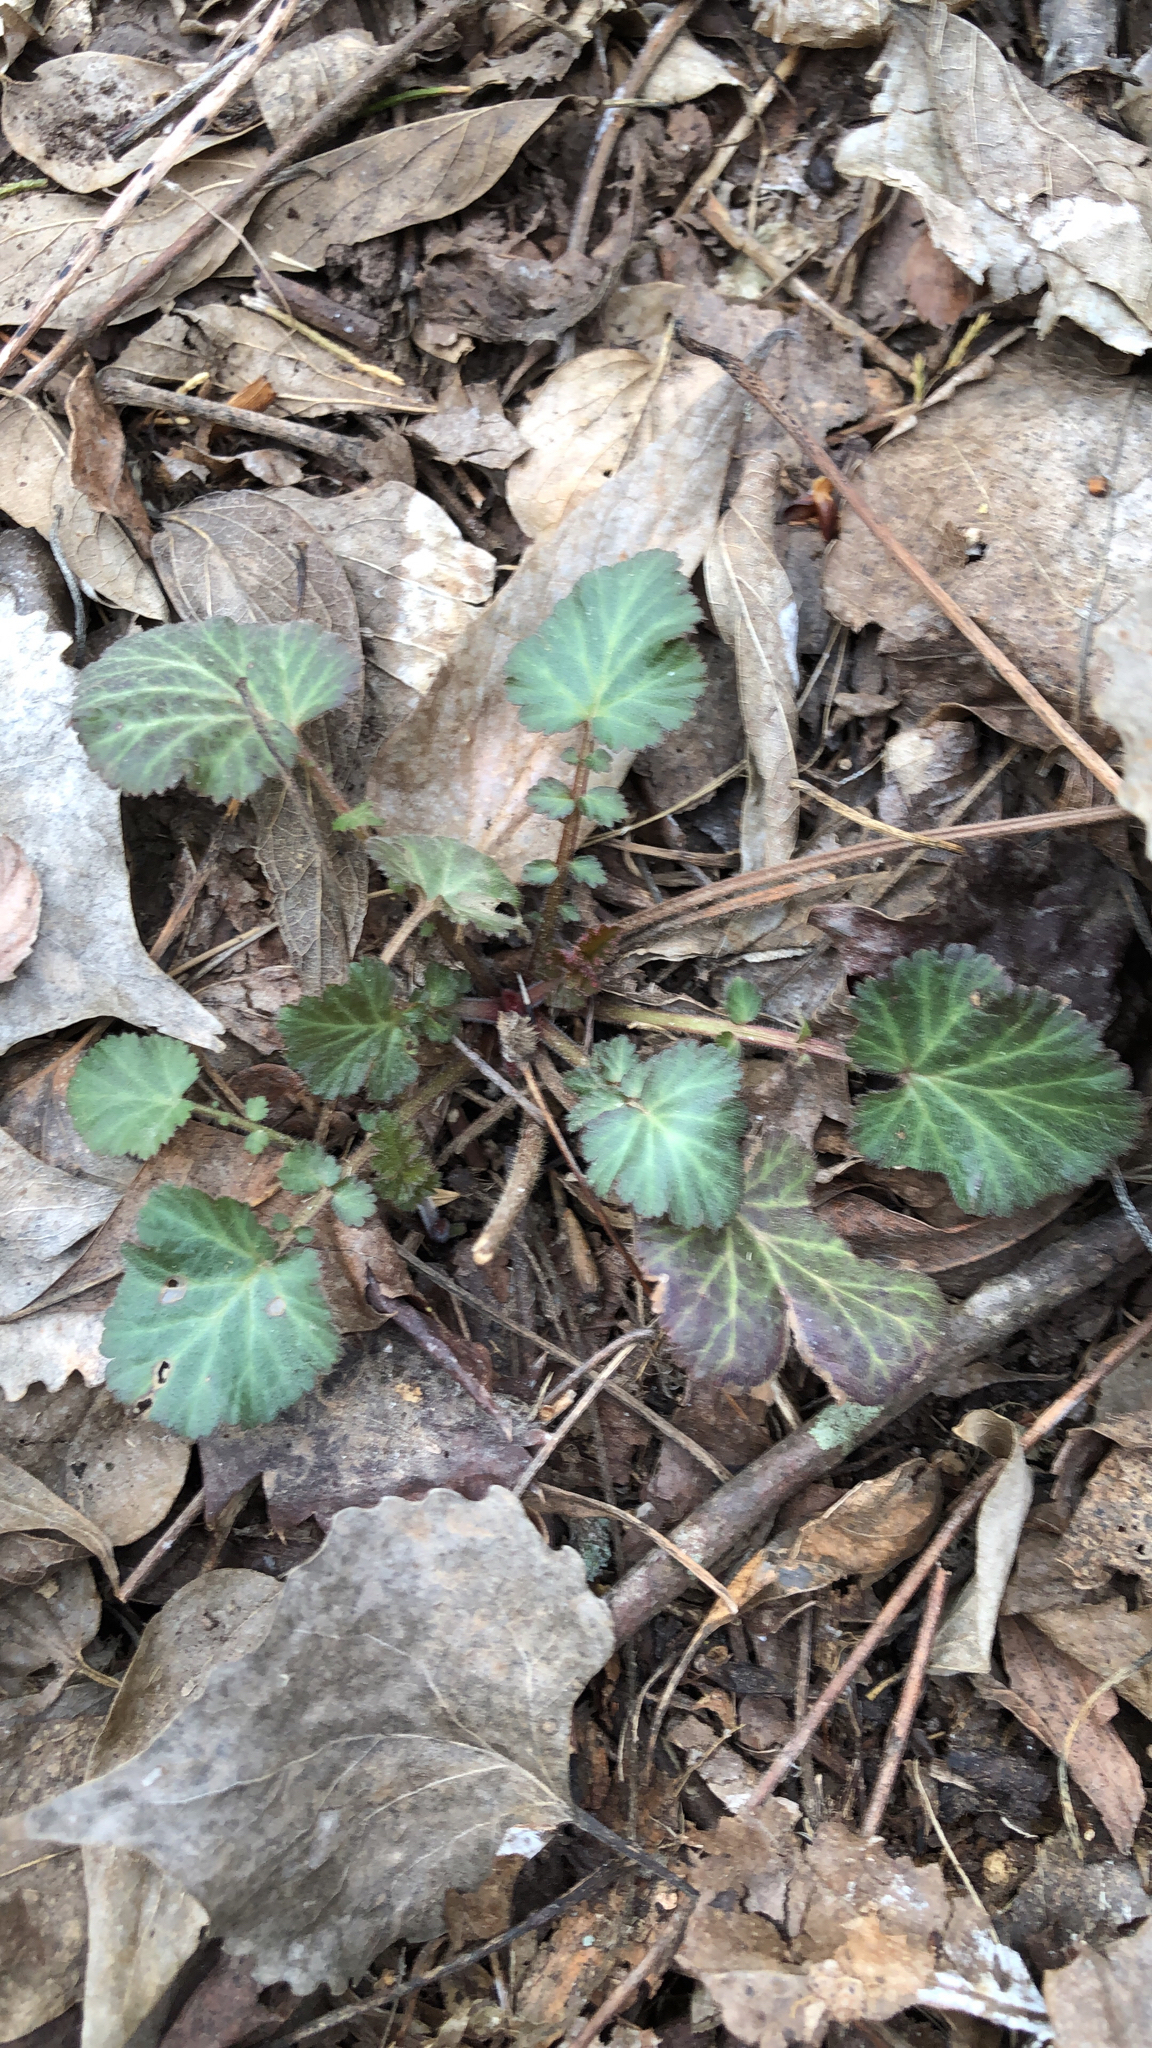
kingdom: Plantae
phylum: Tracheophyta
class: Magnoliopsida
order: Rosales
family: Rosaceae
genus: Geum
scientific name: Geum canadense
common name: White avens
